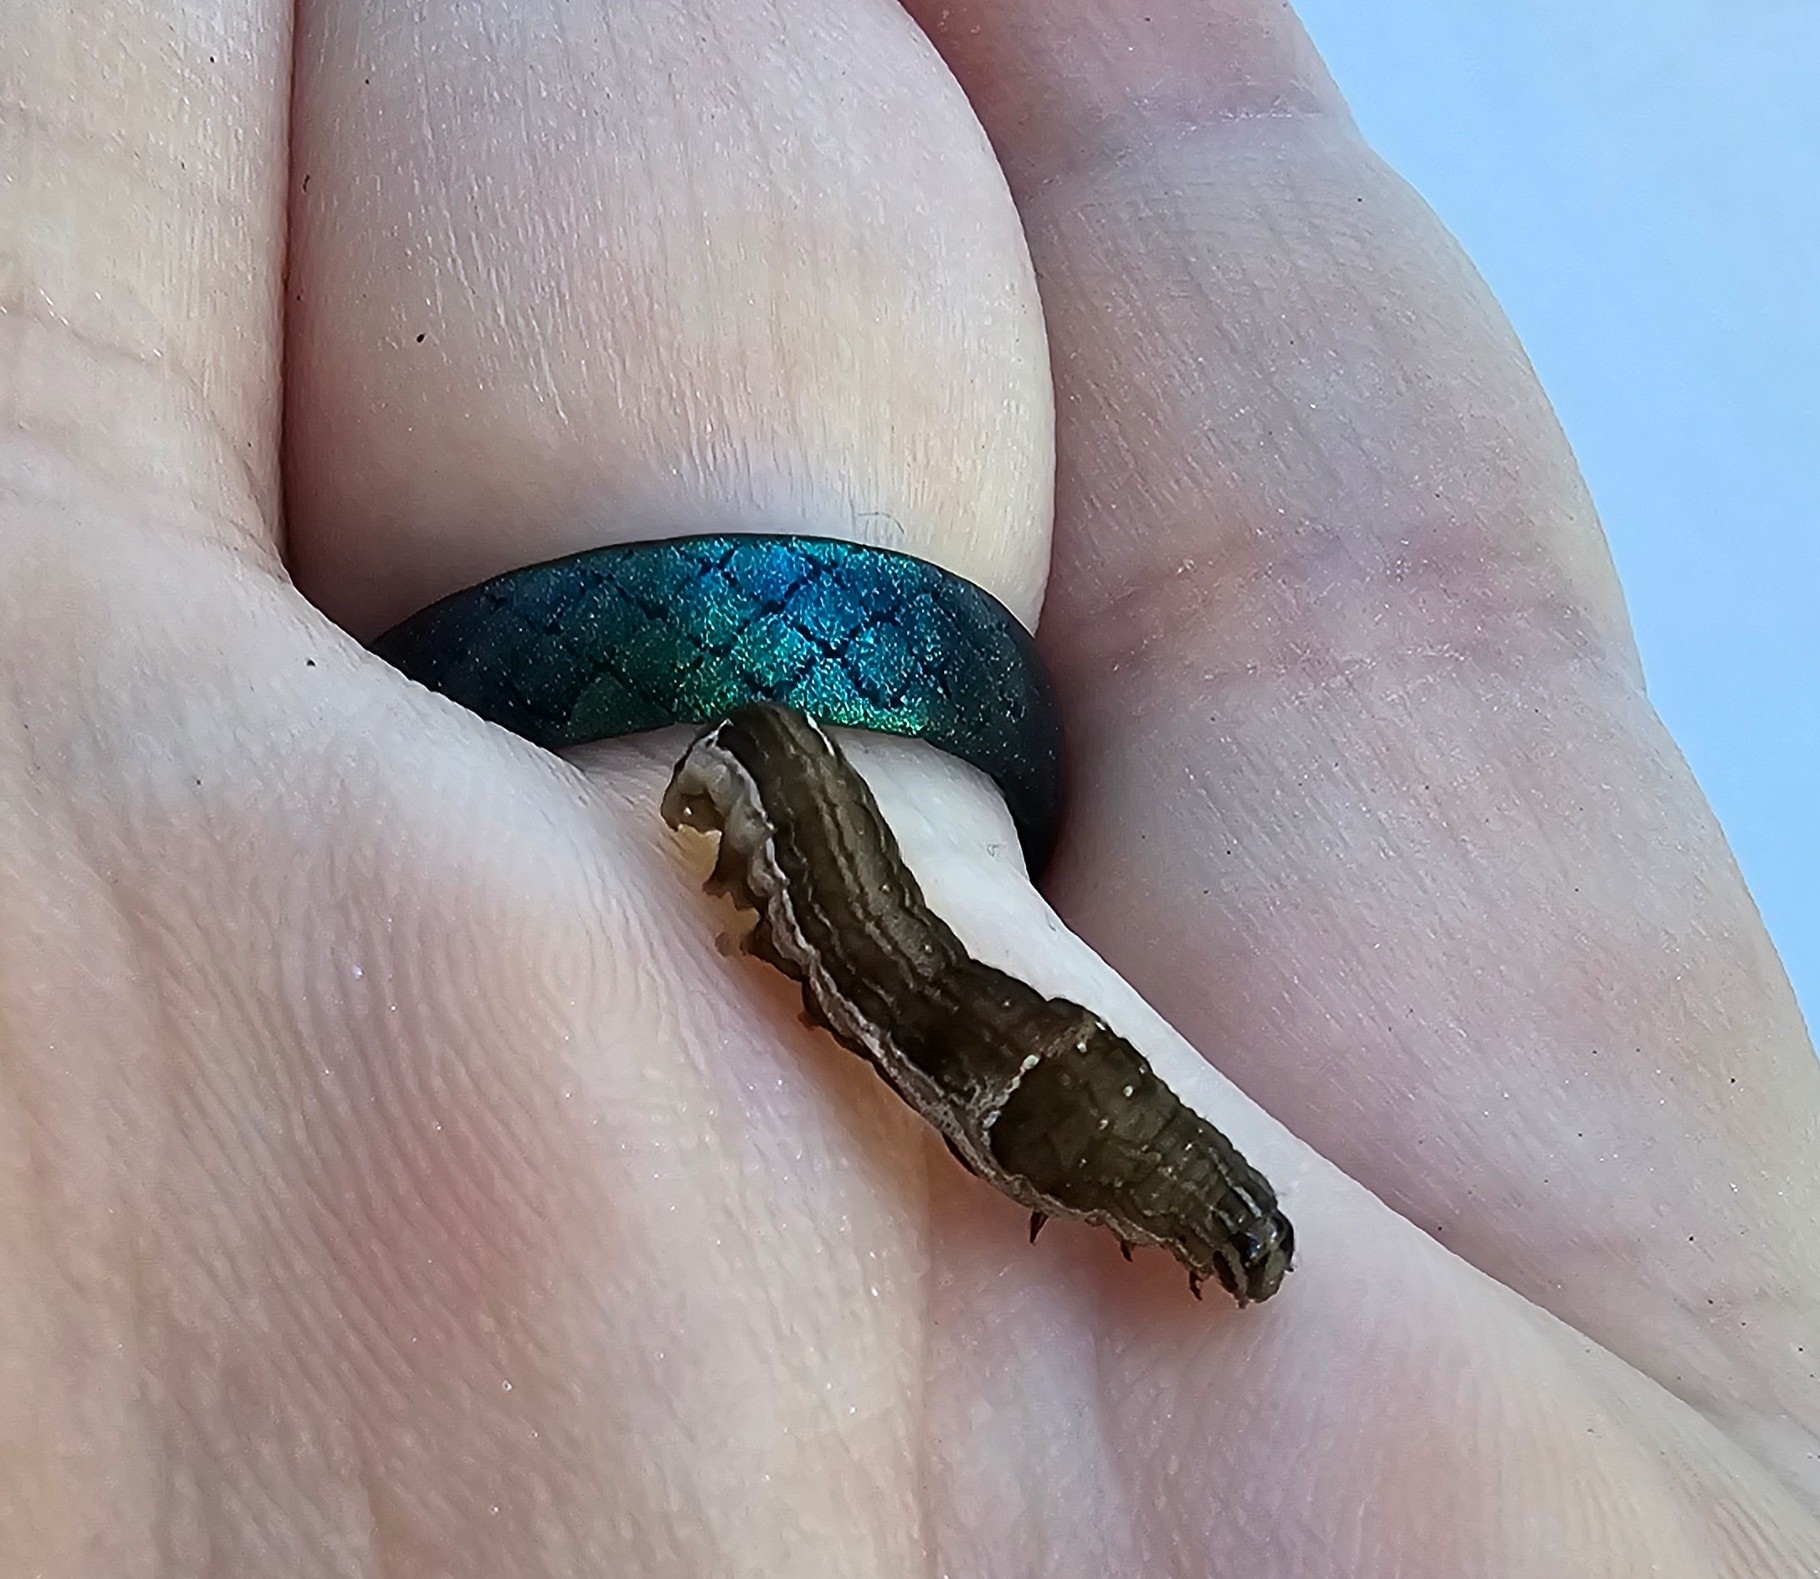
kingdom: Animalia
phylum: Arthropoda
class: Insecta
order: Lepidoptera
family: Noctuidae
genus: Galgula
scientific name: Galgula partita
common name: Wedgeling
